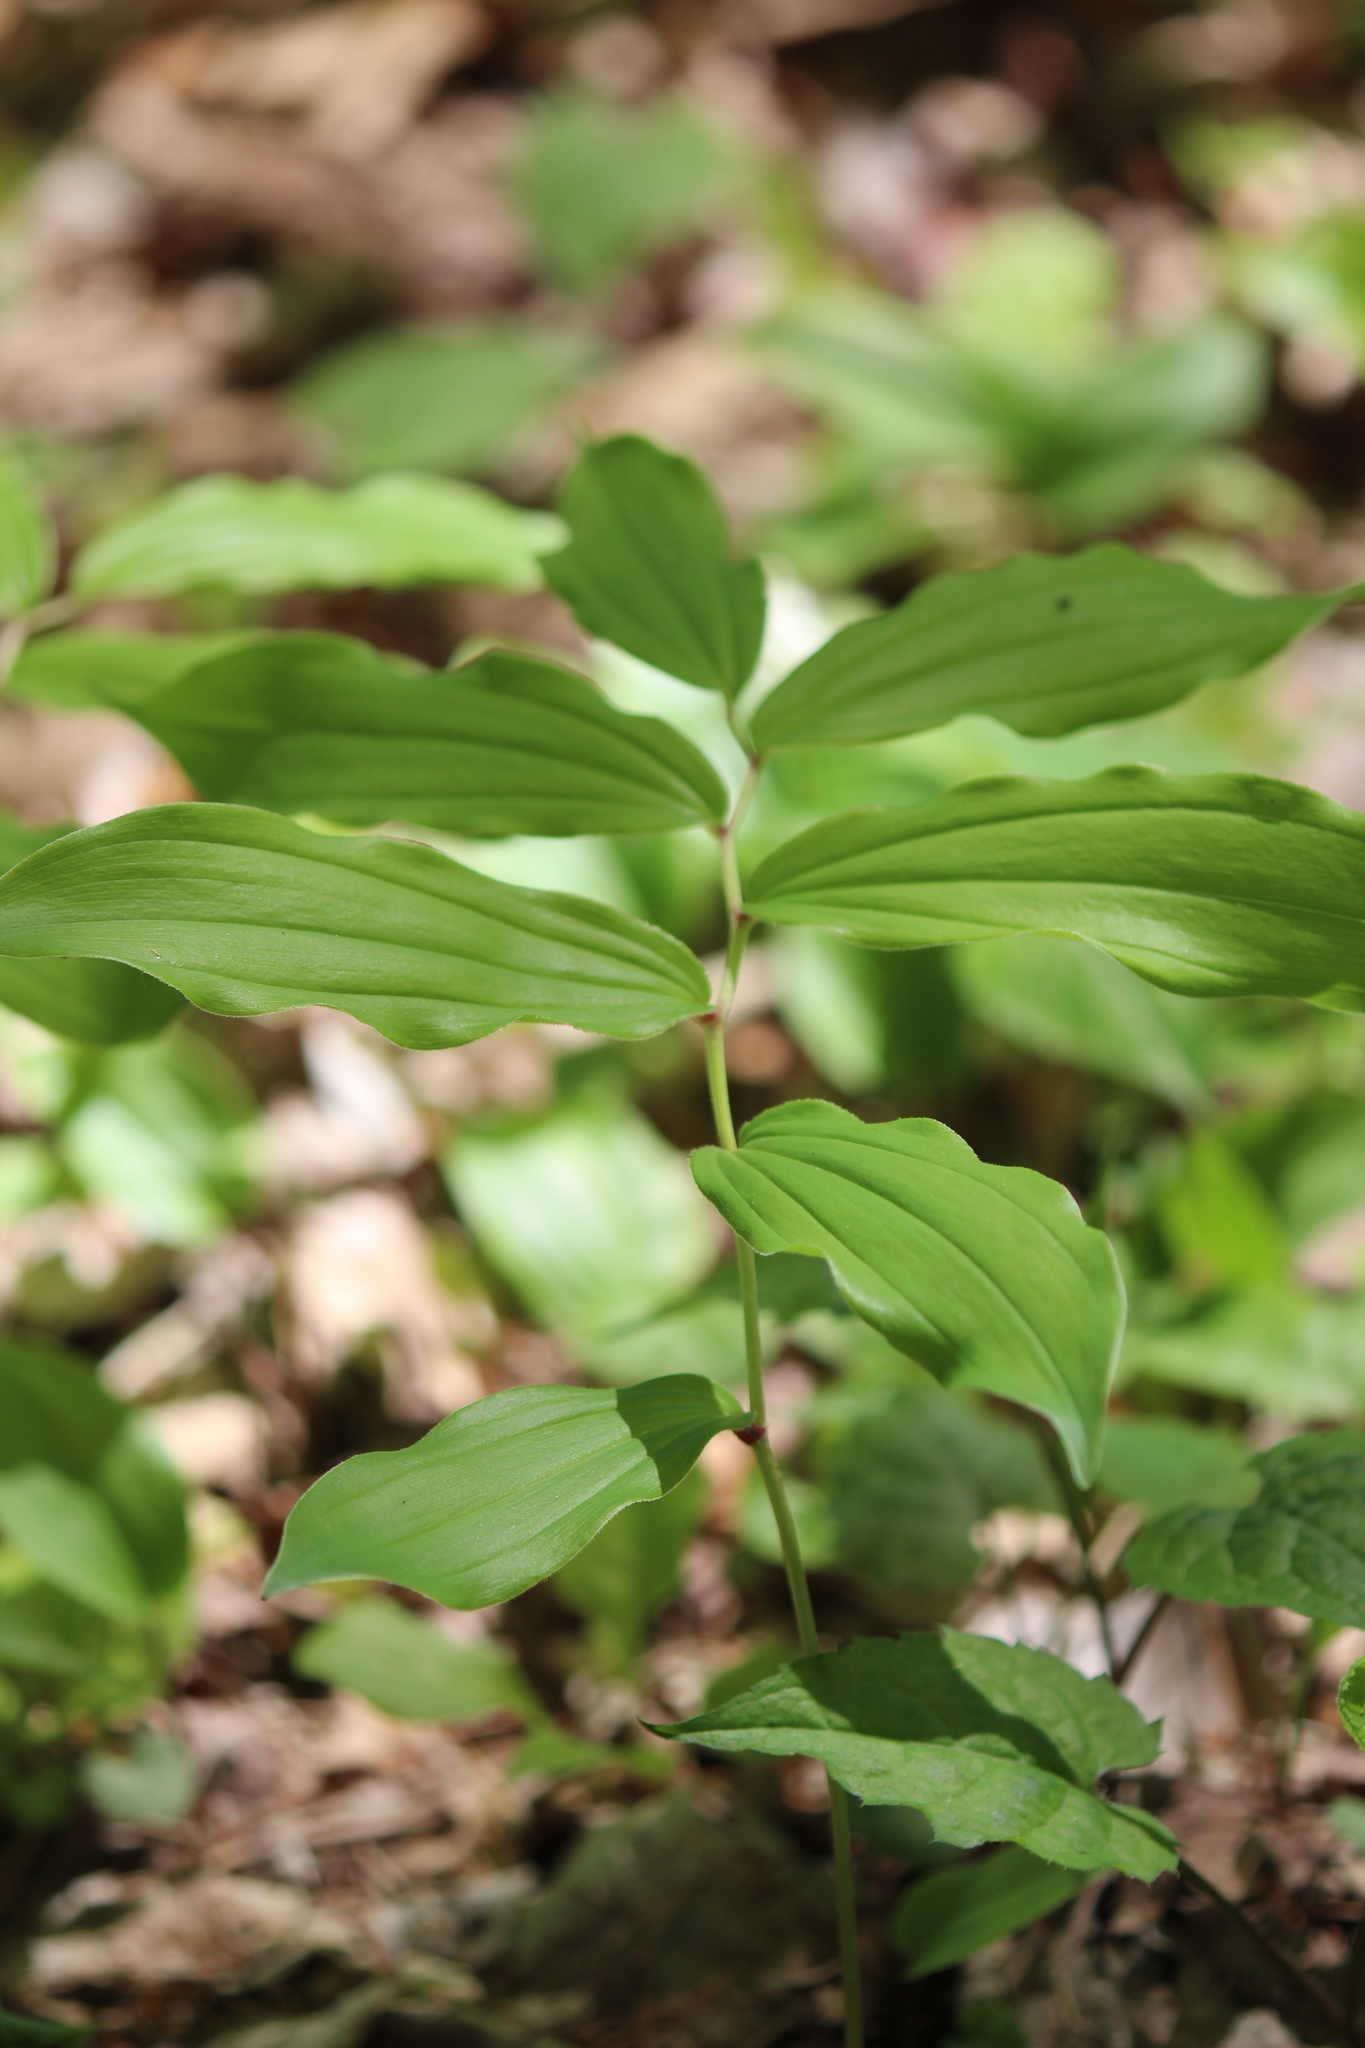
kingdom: Plantae
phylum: Tracheophyta
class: Liliopsida
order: Asparagales
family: Asparagaceae
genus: Maianthemum
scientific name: Maianthemum racemosum
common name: False spikenard
